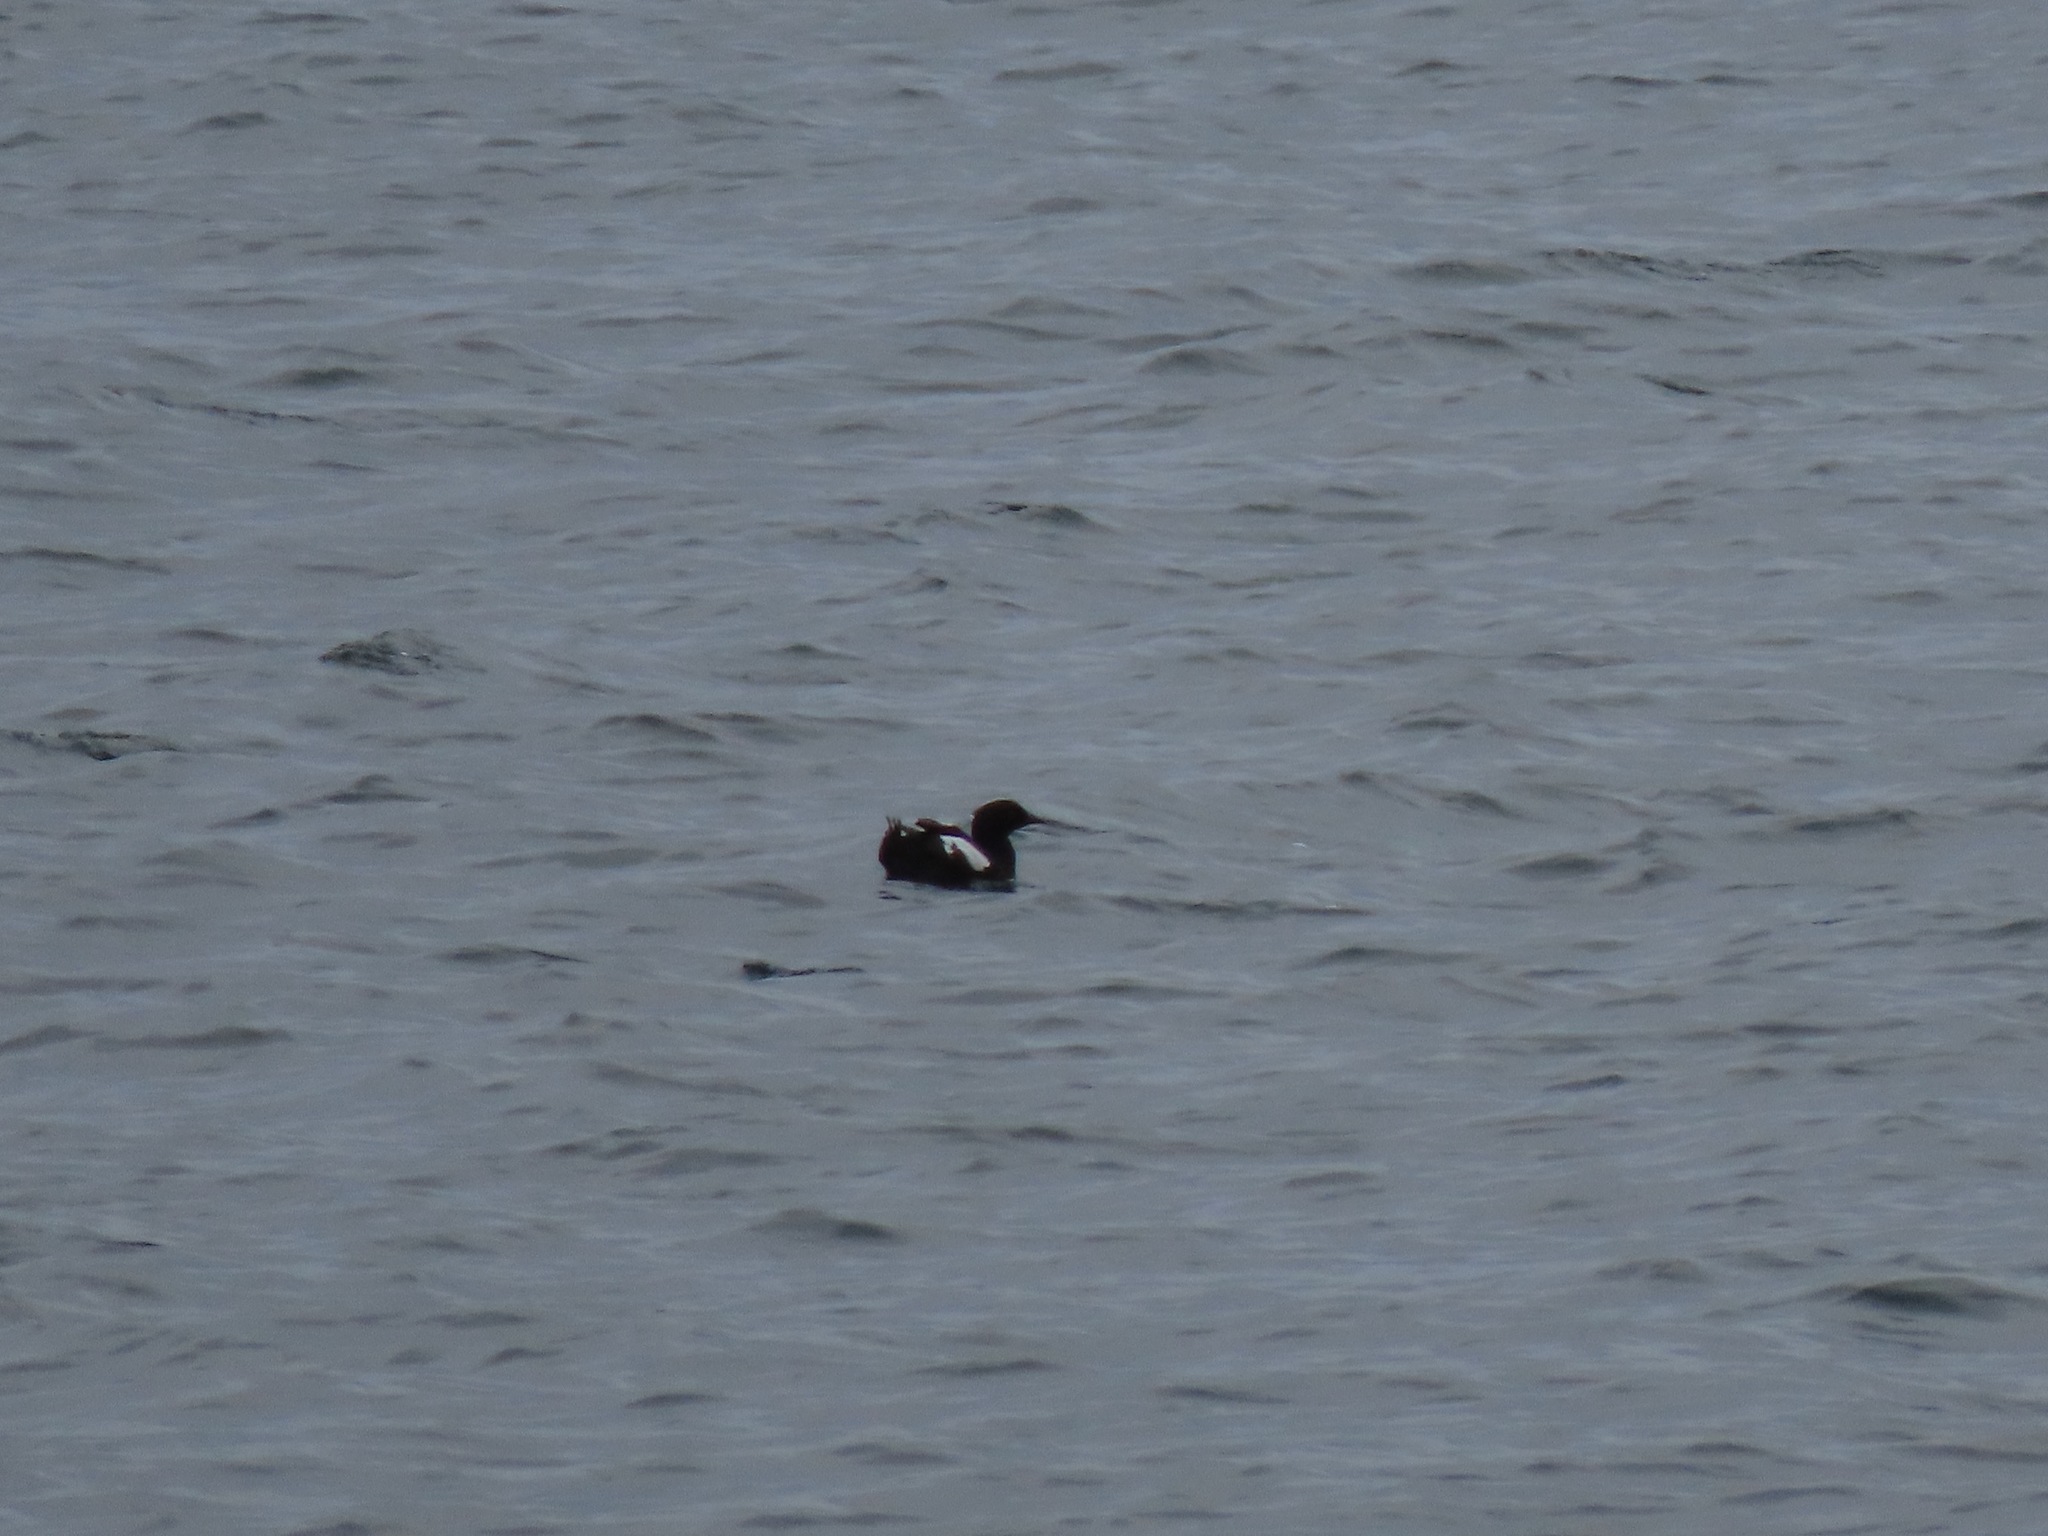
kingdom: Animalia
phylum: Chordata
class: Aves
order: Charadriiformes
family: Alcidae
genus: Cepphus
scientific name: Cepphus columba
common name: Pigeon guillemot
